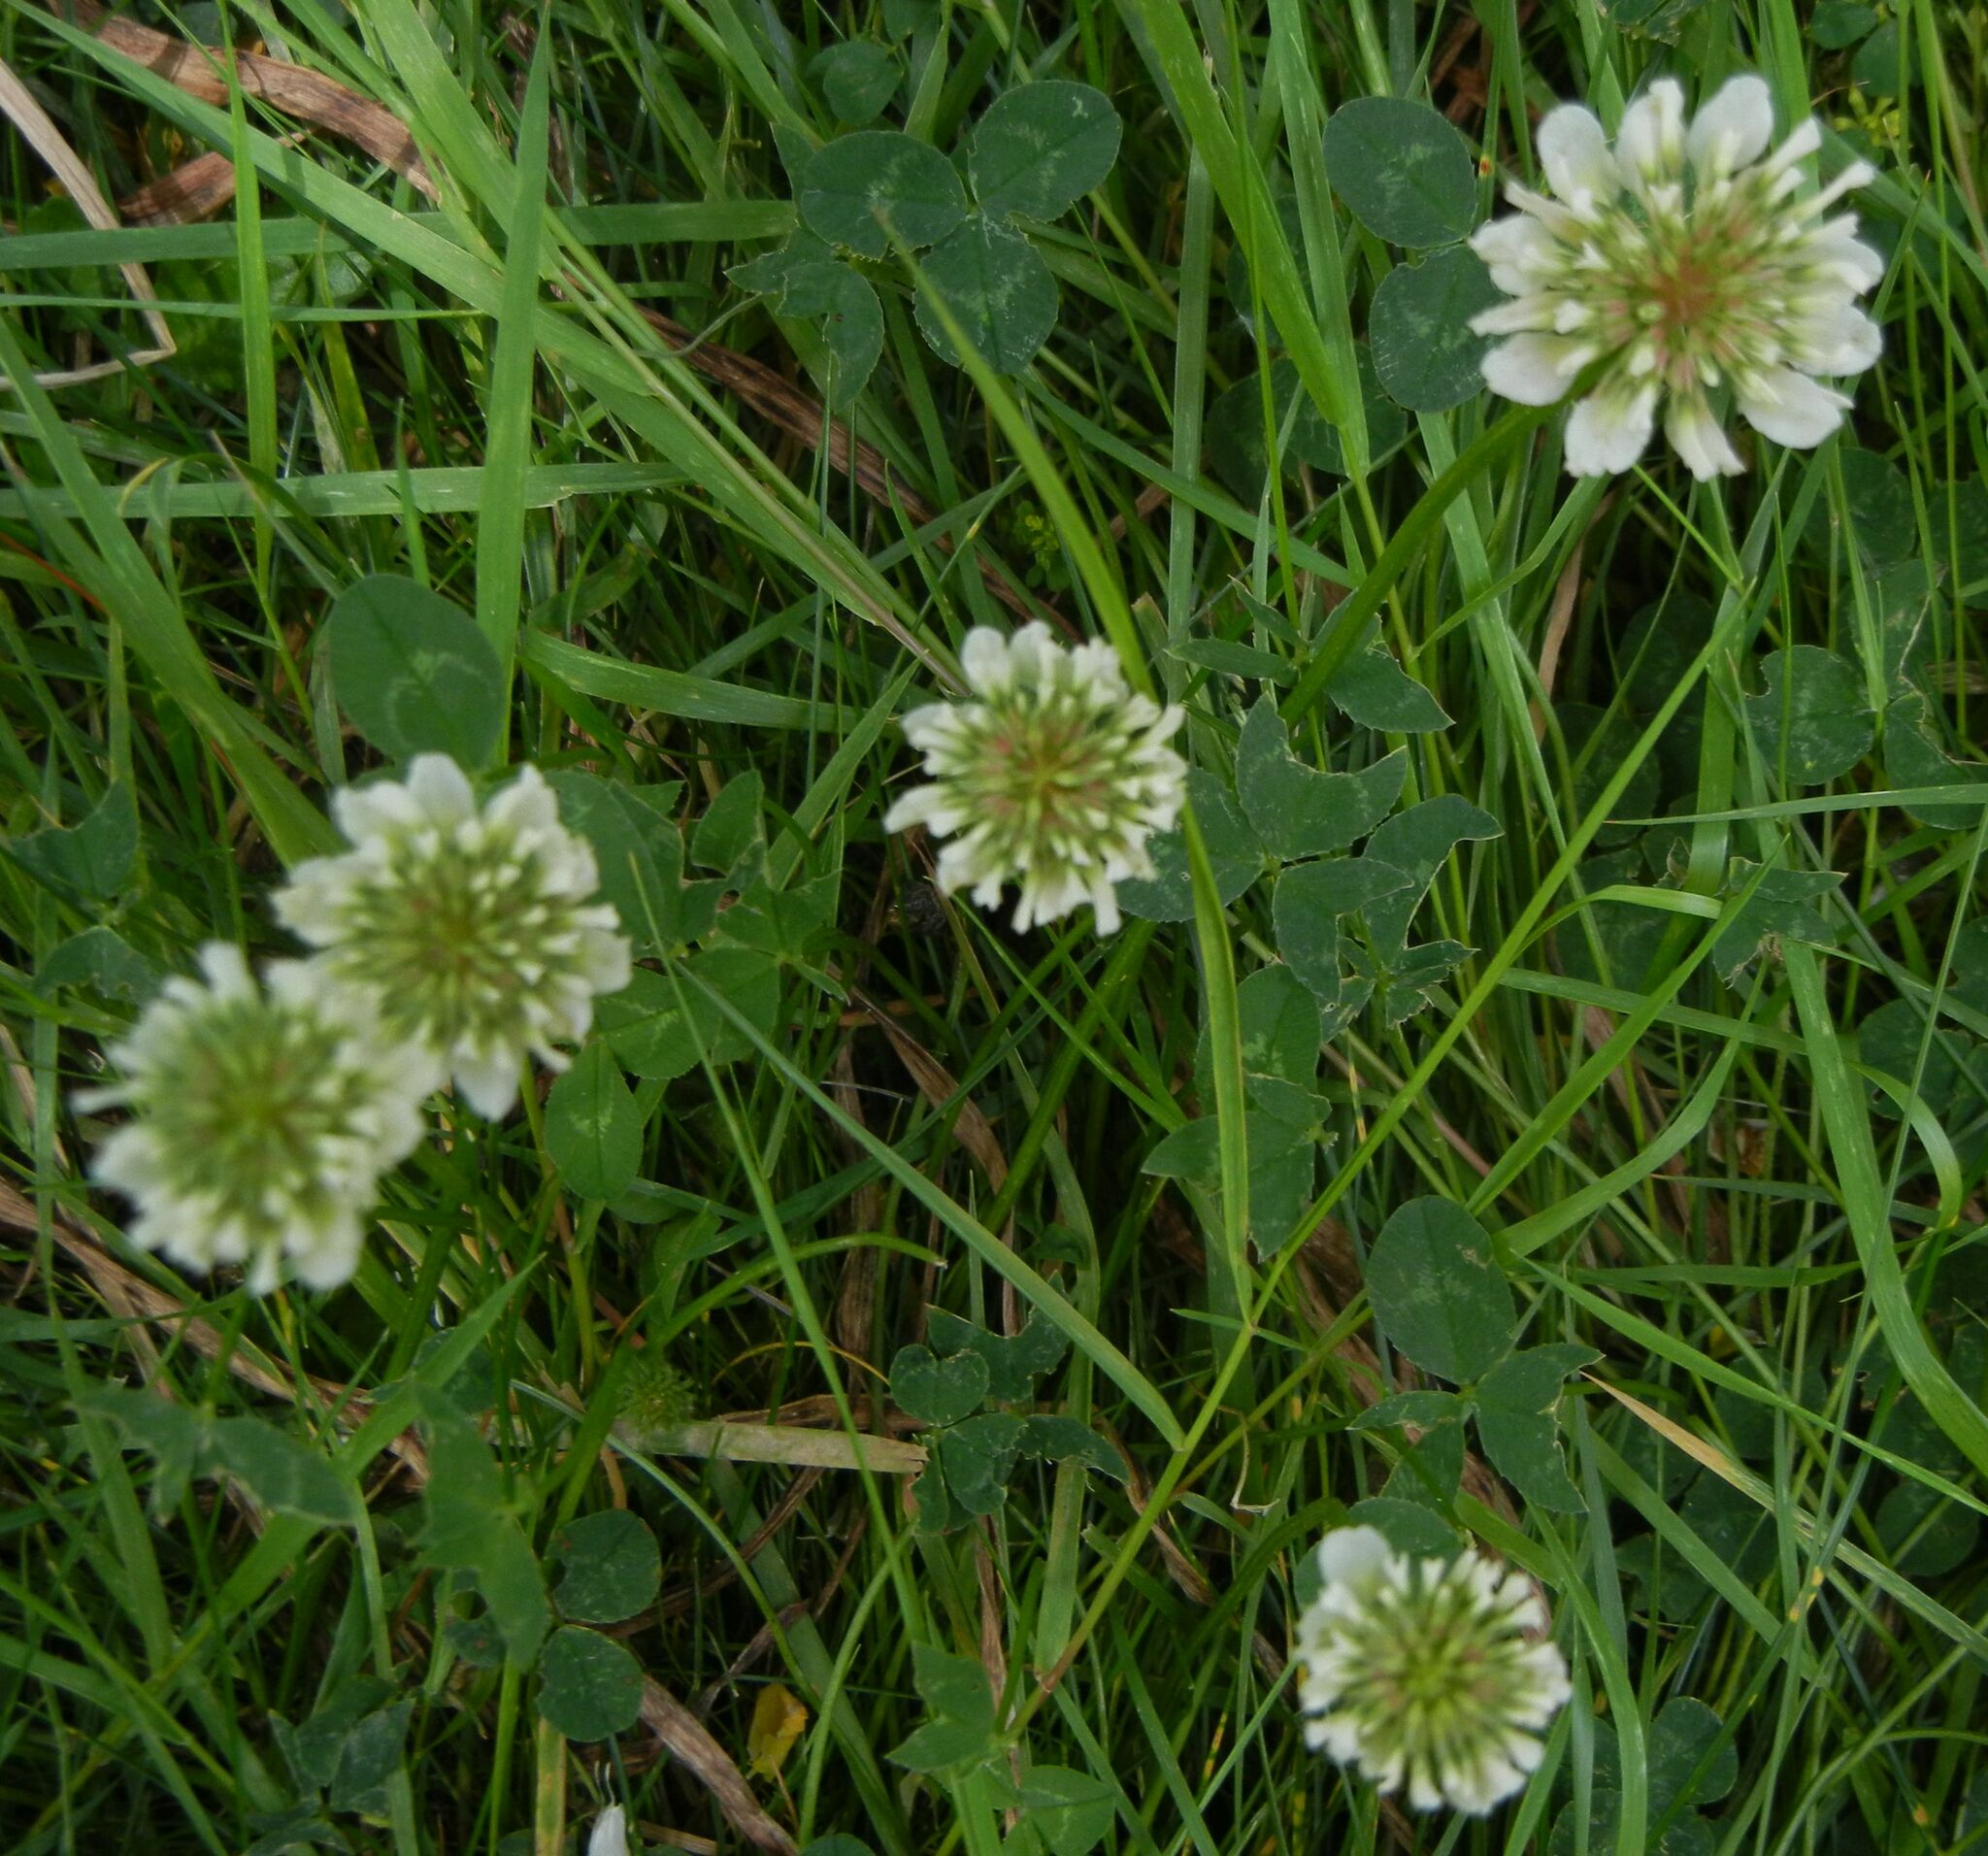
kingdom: Plantae
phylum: Tracheophyta
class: Magnoliopsida
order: Fabales
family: Fabaceae
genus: Trifolium
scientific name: Trifolium repens
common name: White clover
